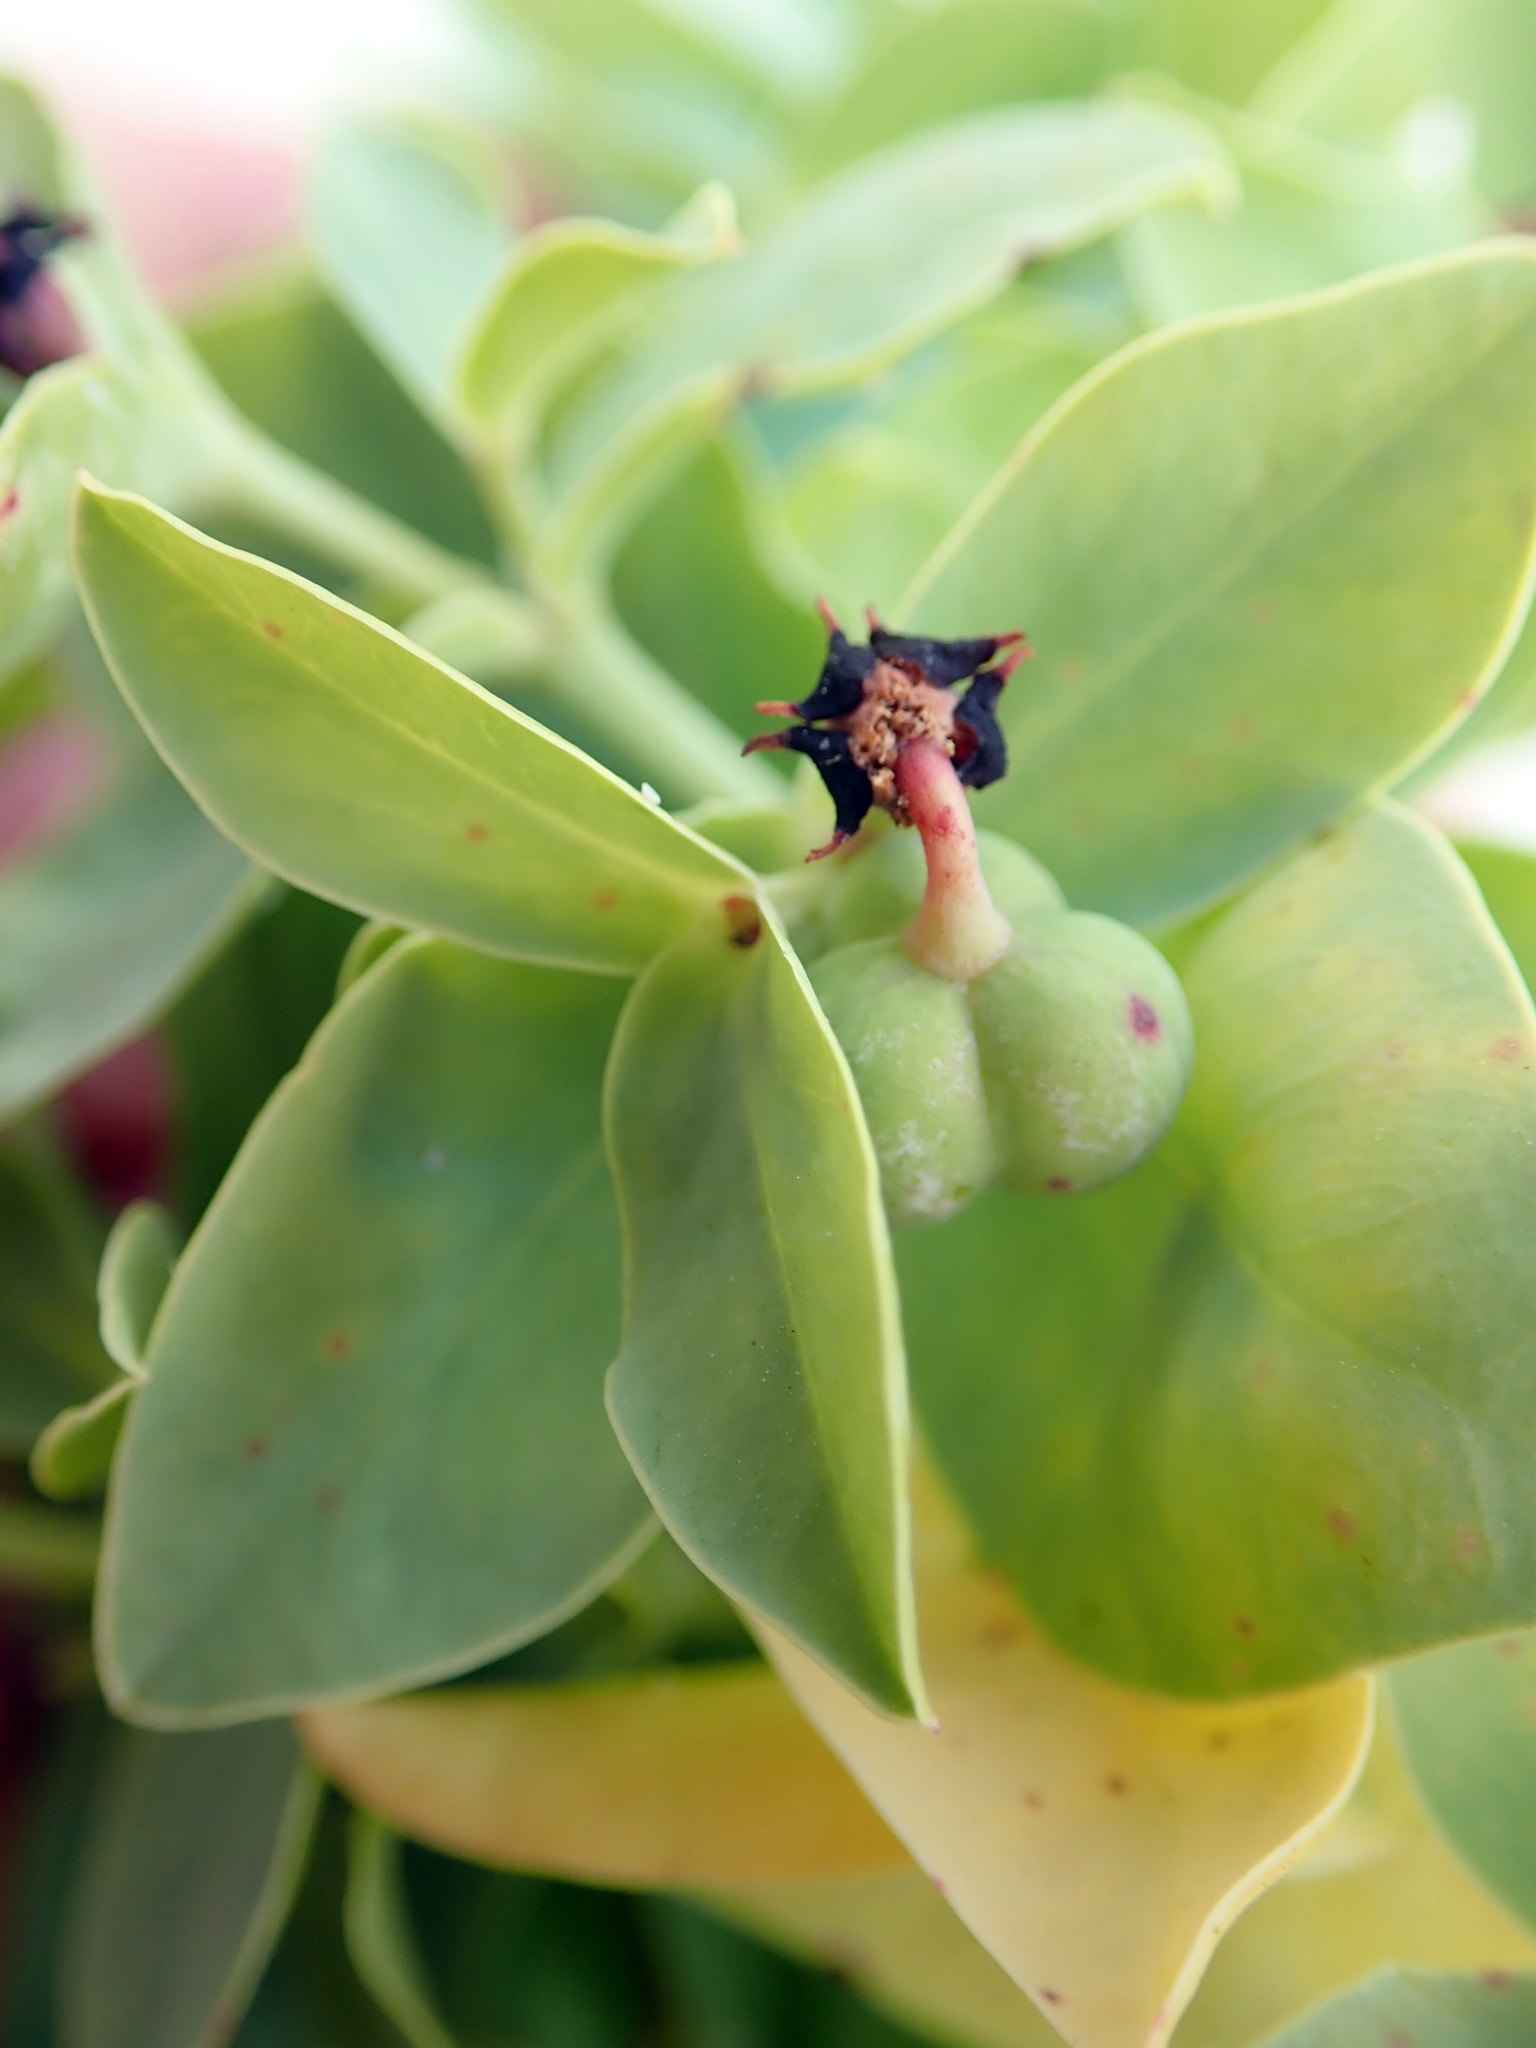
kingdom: Plantae
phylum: Tracheophyta
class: Magnoliopsida
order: Malpighiales
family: Euphorbiaceae
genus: Euphorbia
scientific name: Euphorbia glauca
